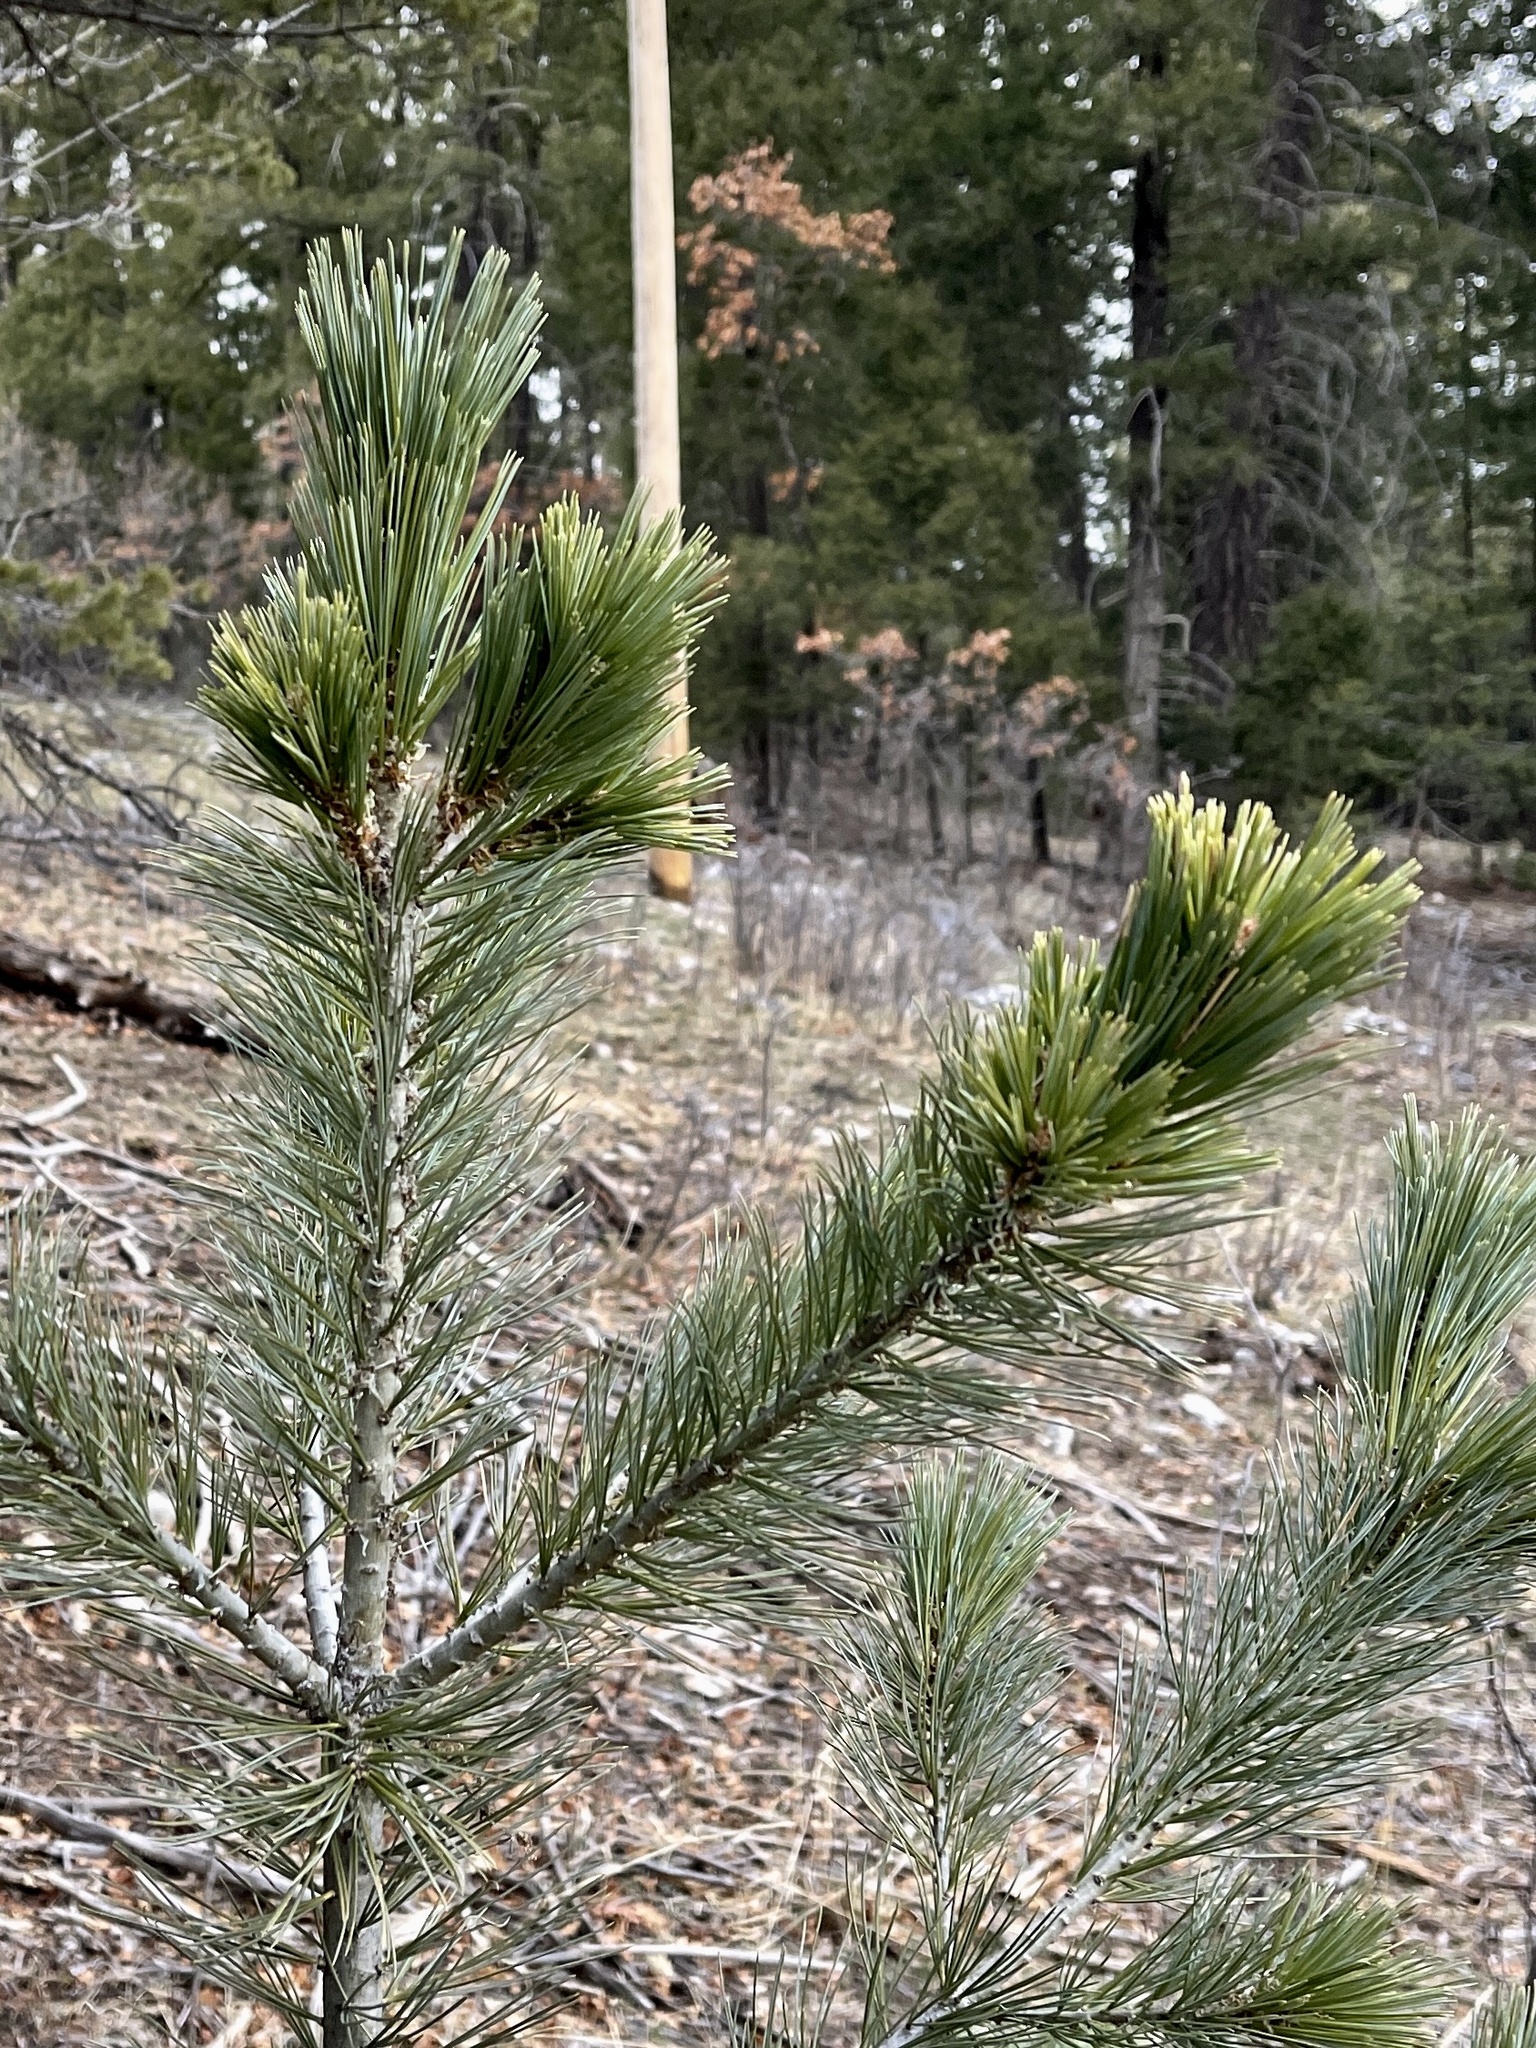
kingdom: Plantae
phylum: Tracheophyta
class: Pinopsida
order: Pinales
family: Pinaceae
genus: Pinus
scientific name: Pinus strobiformis
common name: Southwestern white pine
